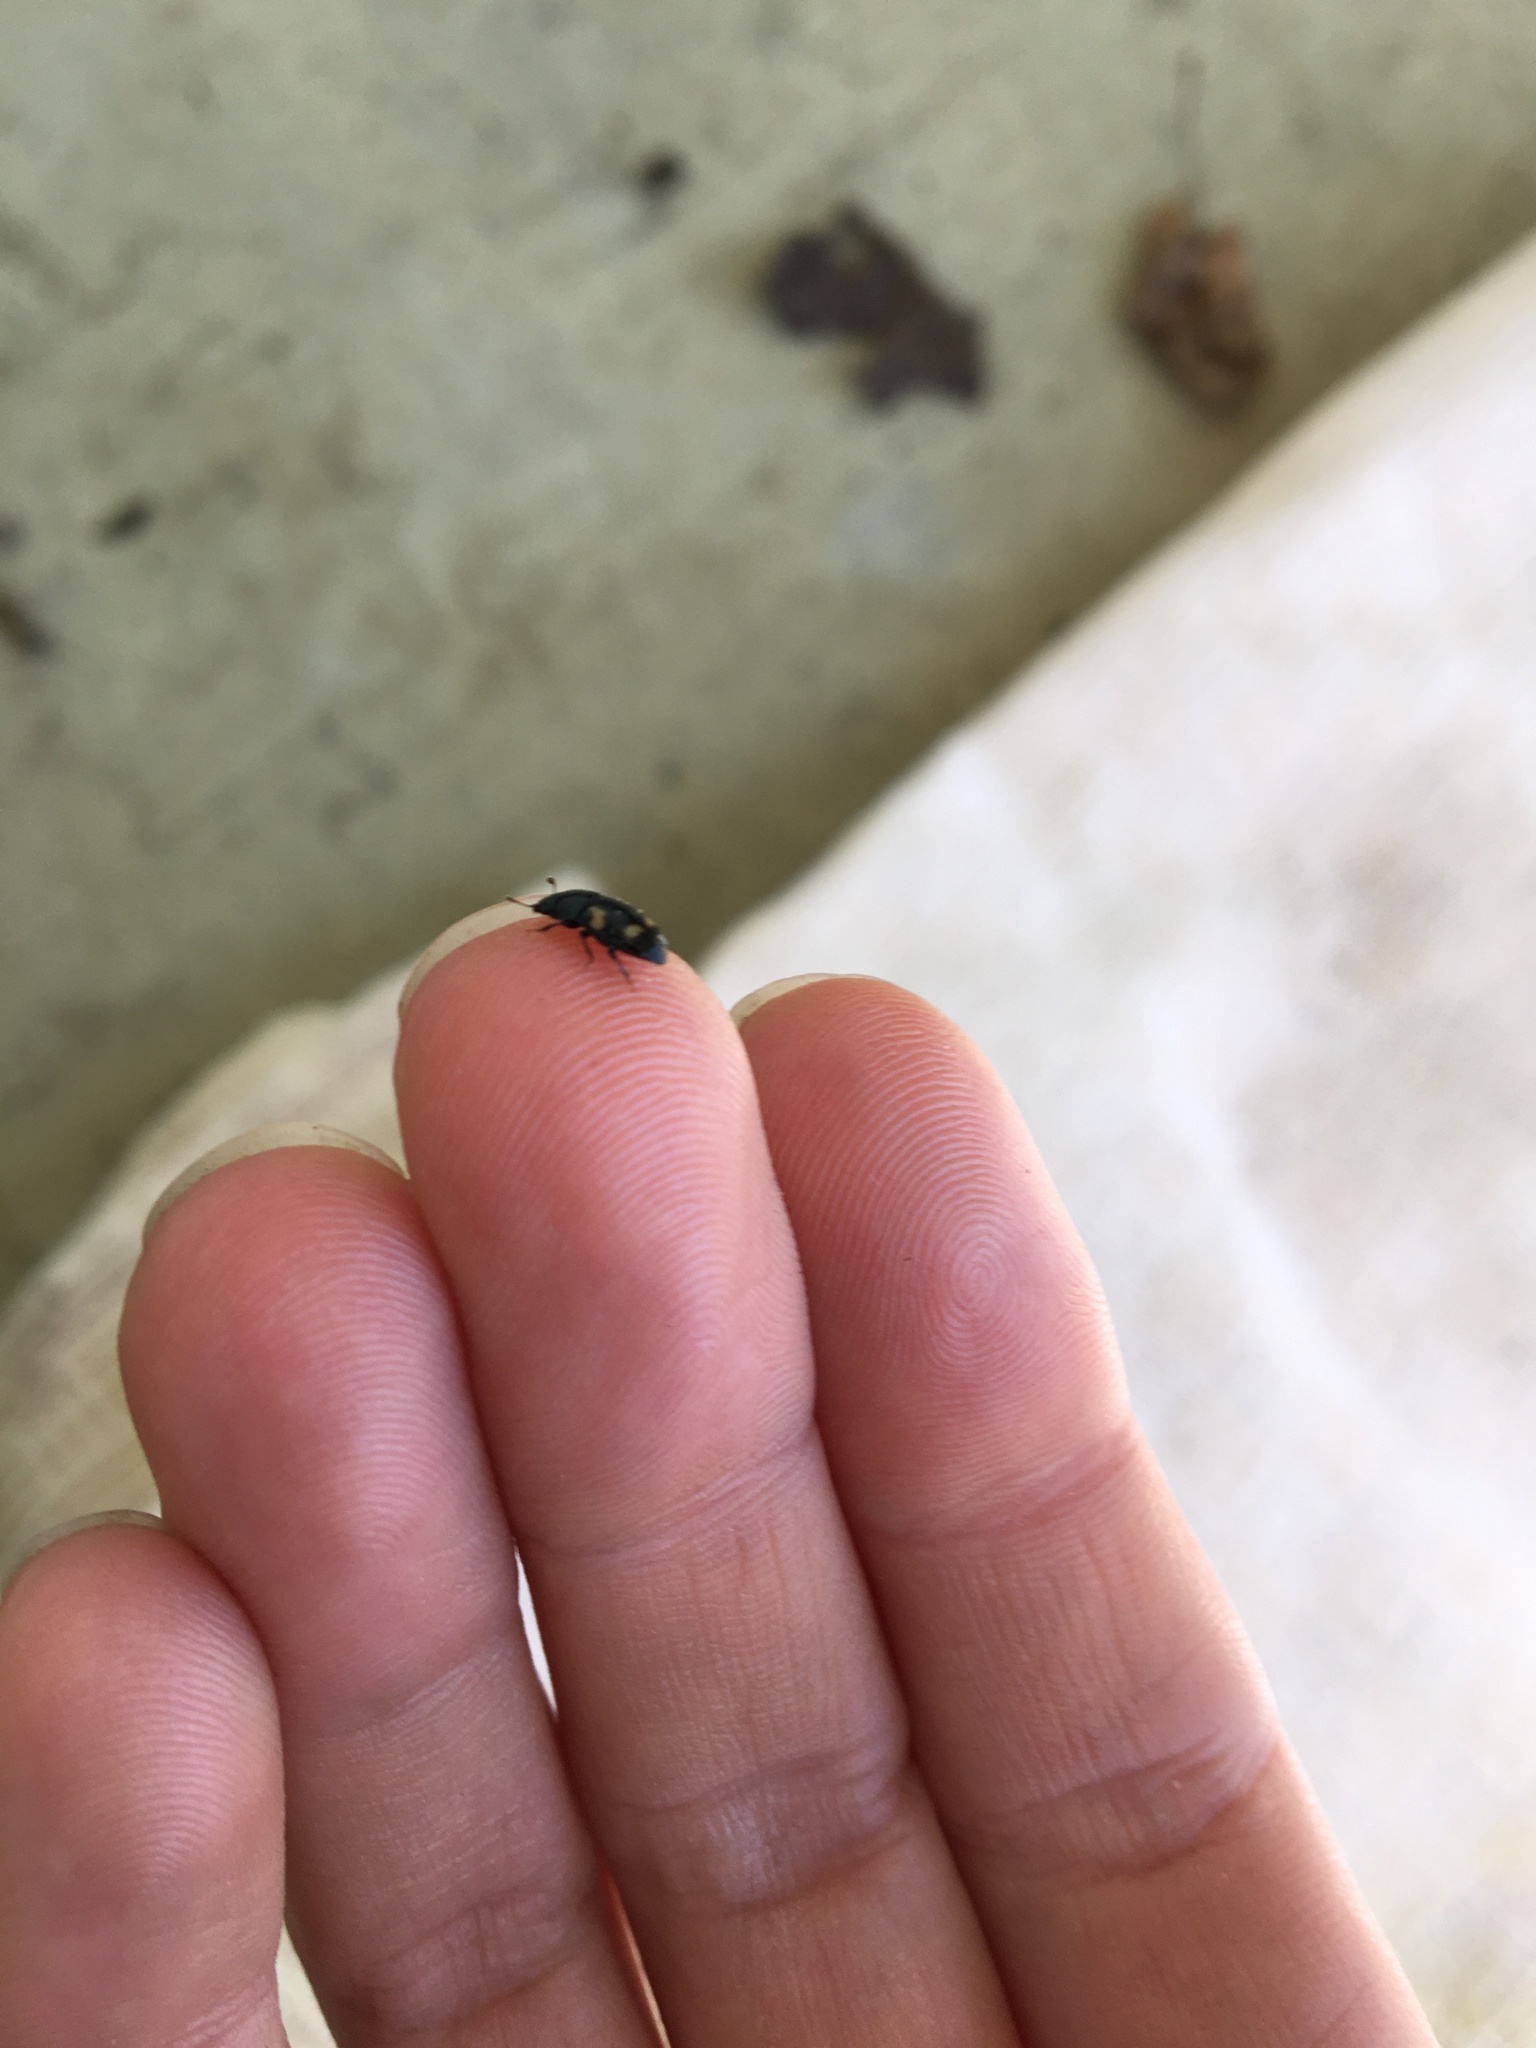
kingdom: Animalia
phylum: Arthropoda
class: Insecta
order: Coleoptera
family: Nitidulidae
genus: Glischrochilus
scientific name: Glischrochilus quadrisignatus
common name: Picnic beetle
